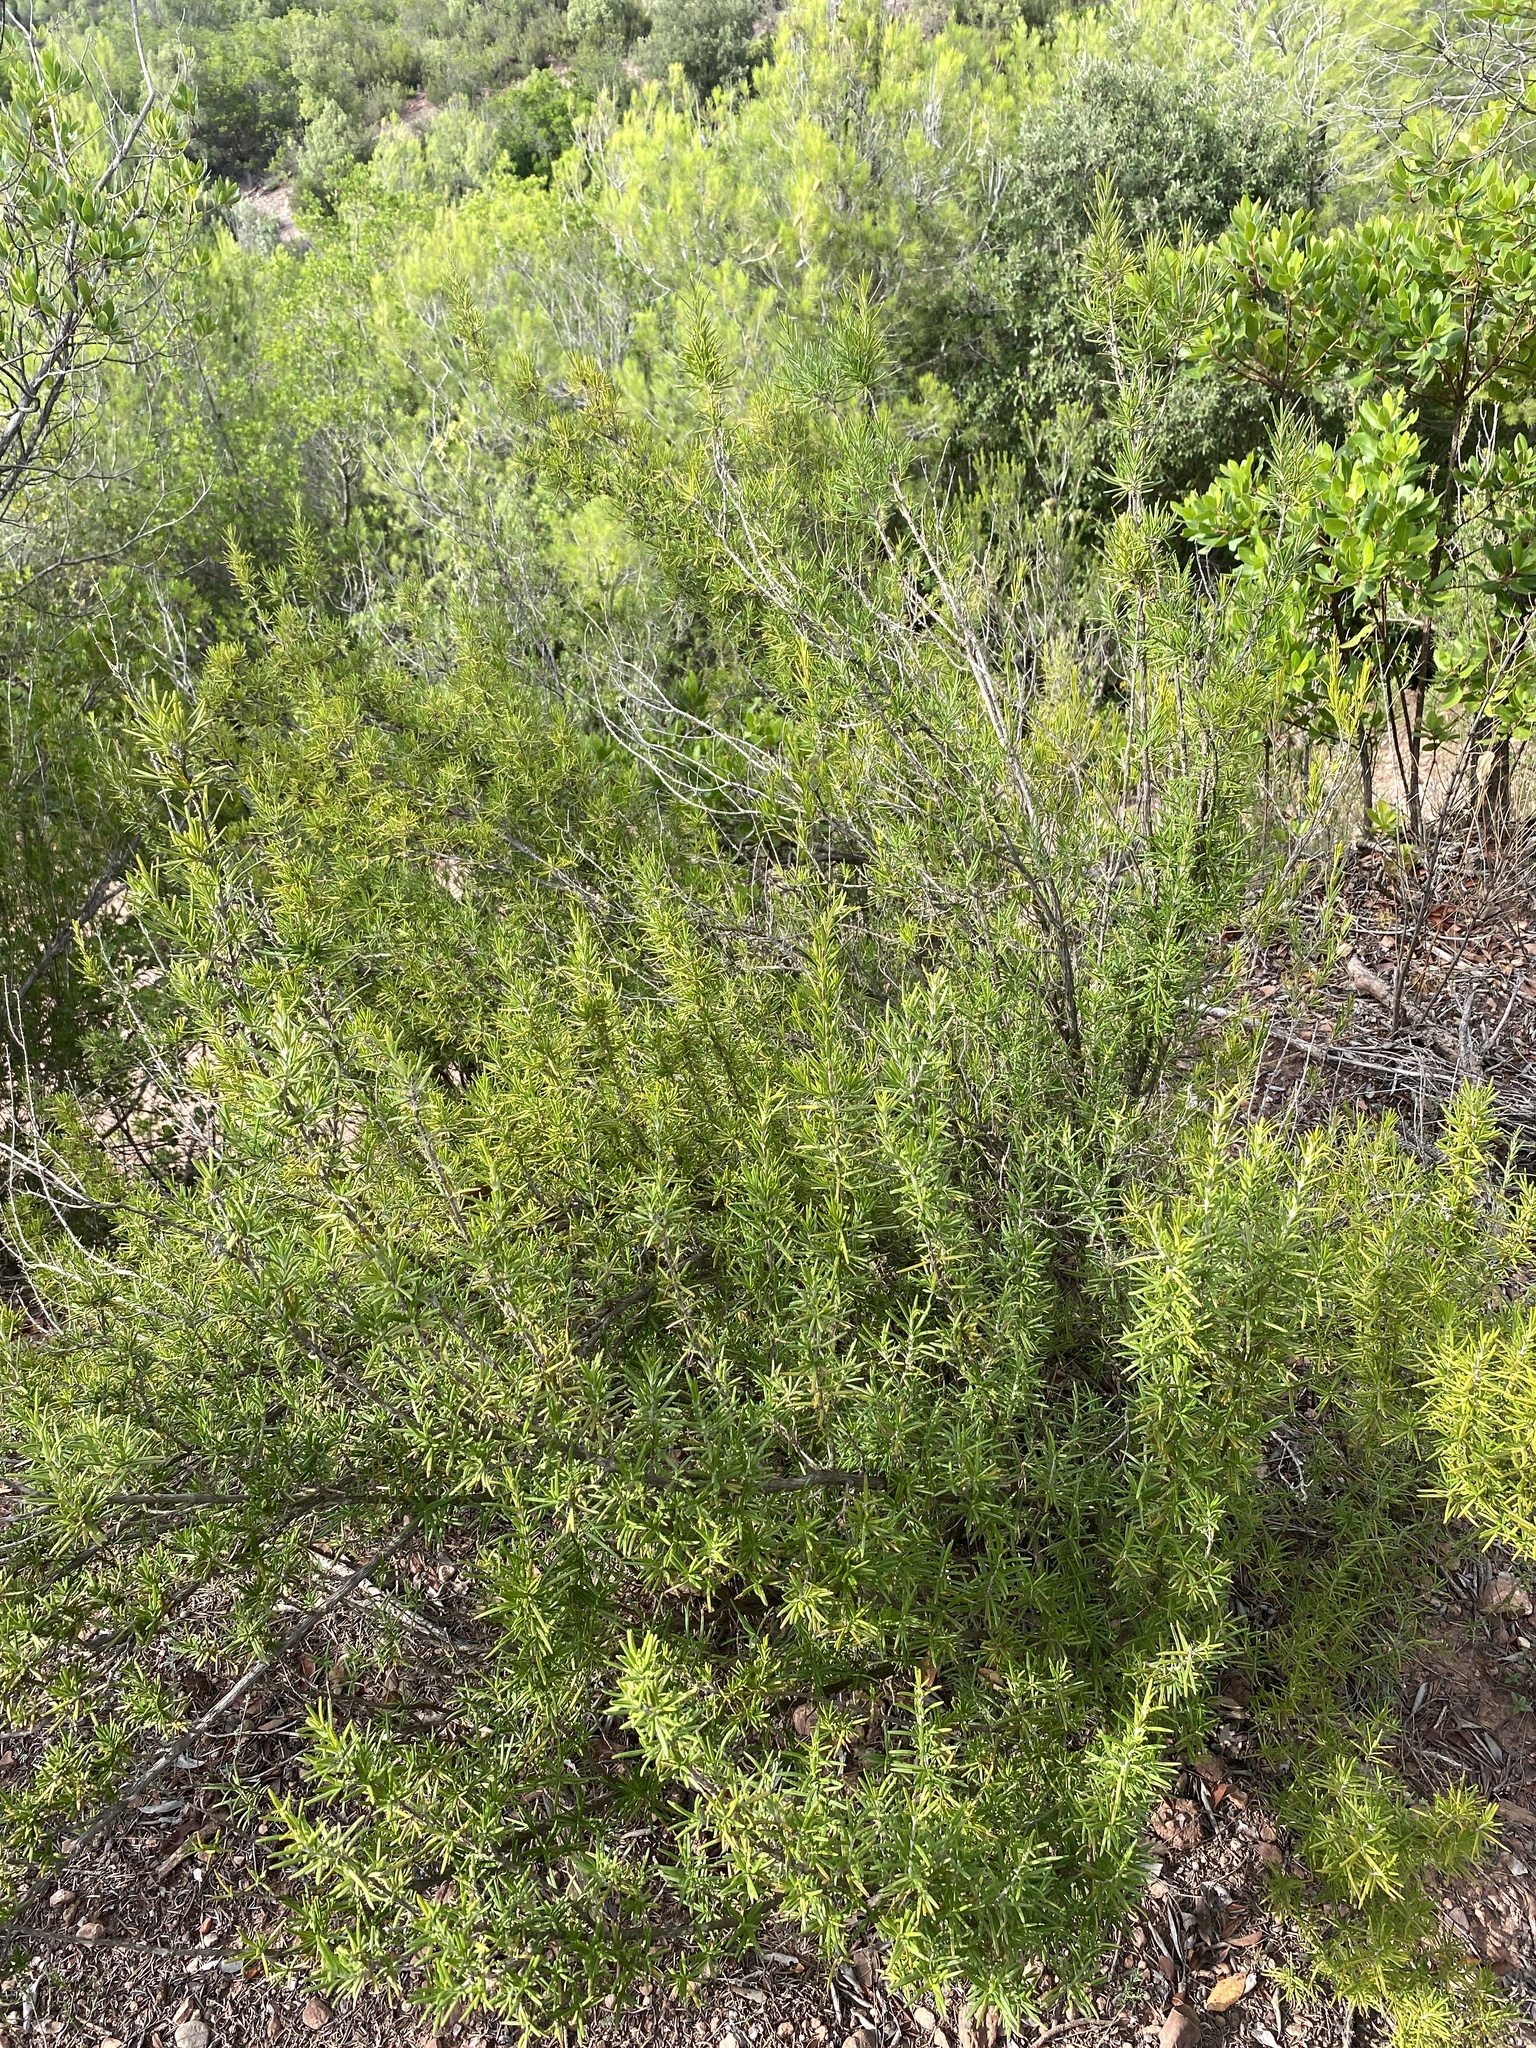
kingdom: Plantae
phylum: Tracheophyta
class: Magnoliopsida
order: Lamiales
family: Lamiaceae
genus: Salvia
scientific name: Salvia rosmarinus
